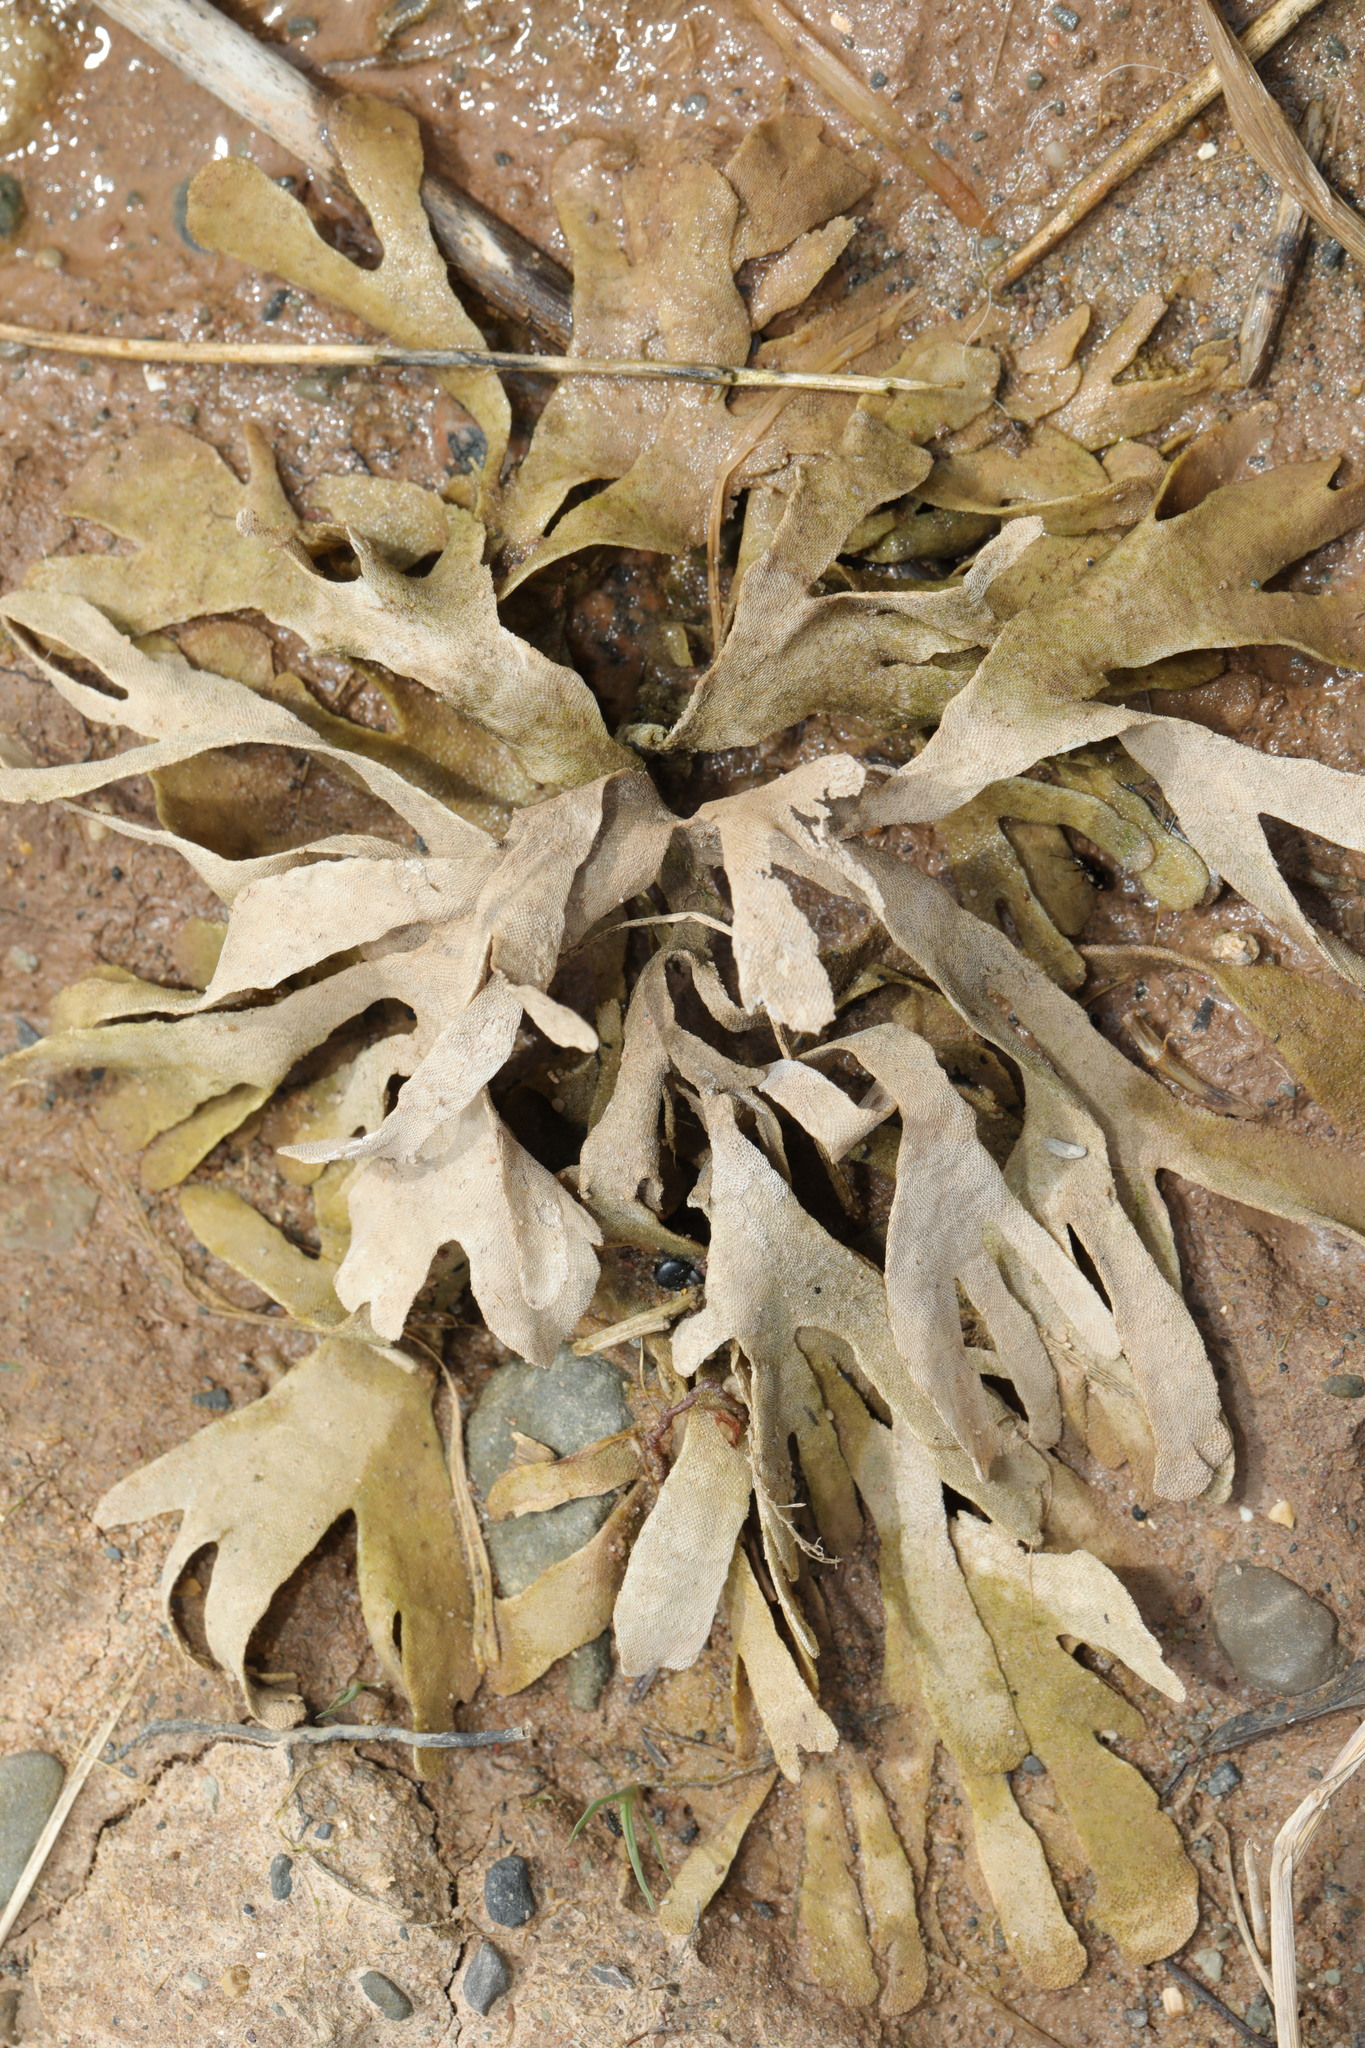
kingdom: Animalia
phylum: Bryozoa
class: Gymnolaemata
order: Cheilostomatida
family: Flustridae
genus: Flustra
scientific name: Flustra foliacea
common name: Hornwrack
